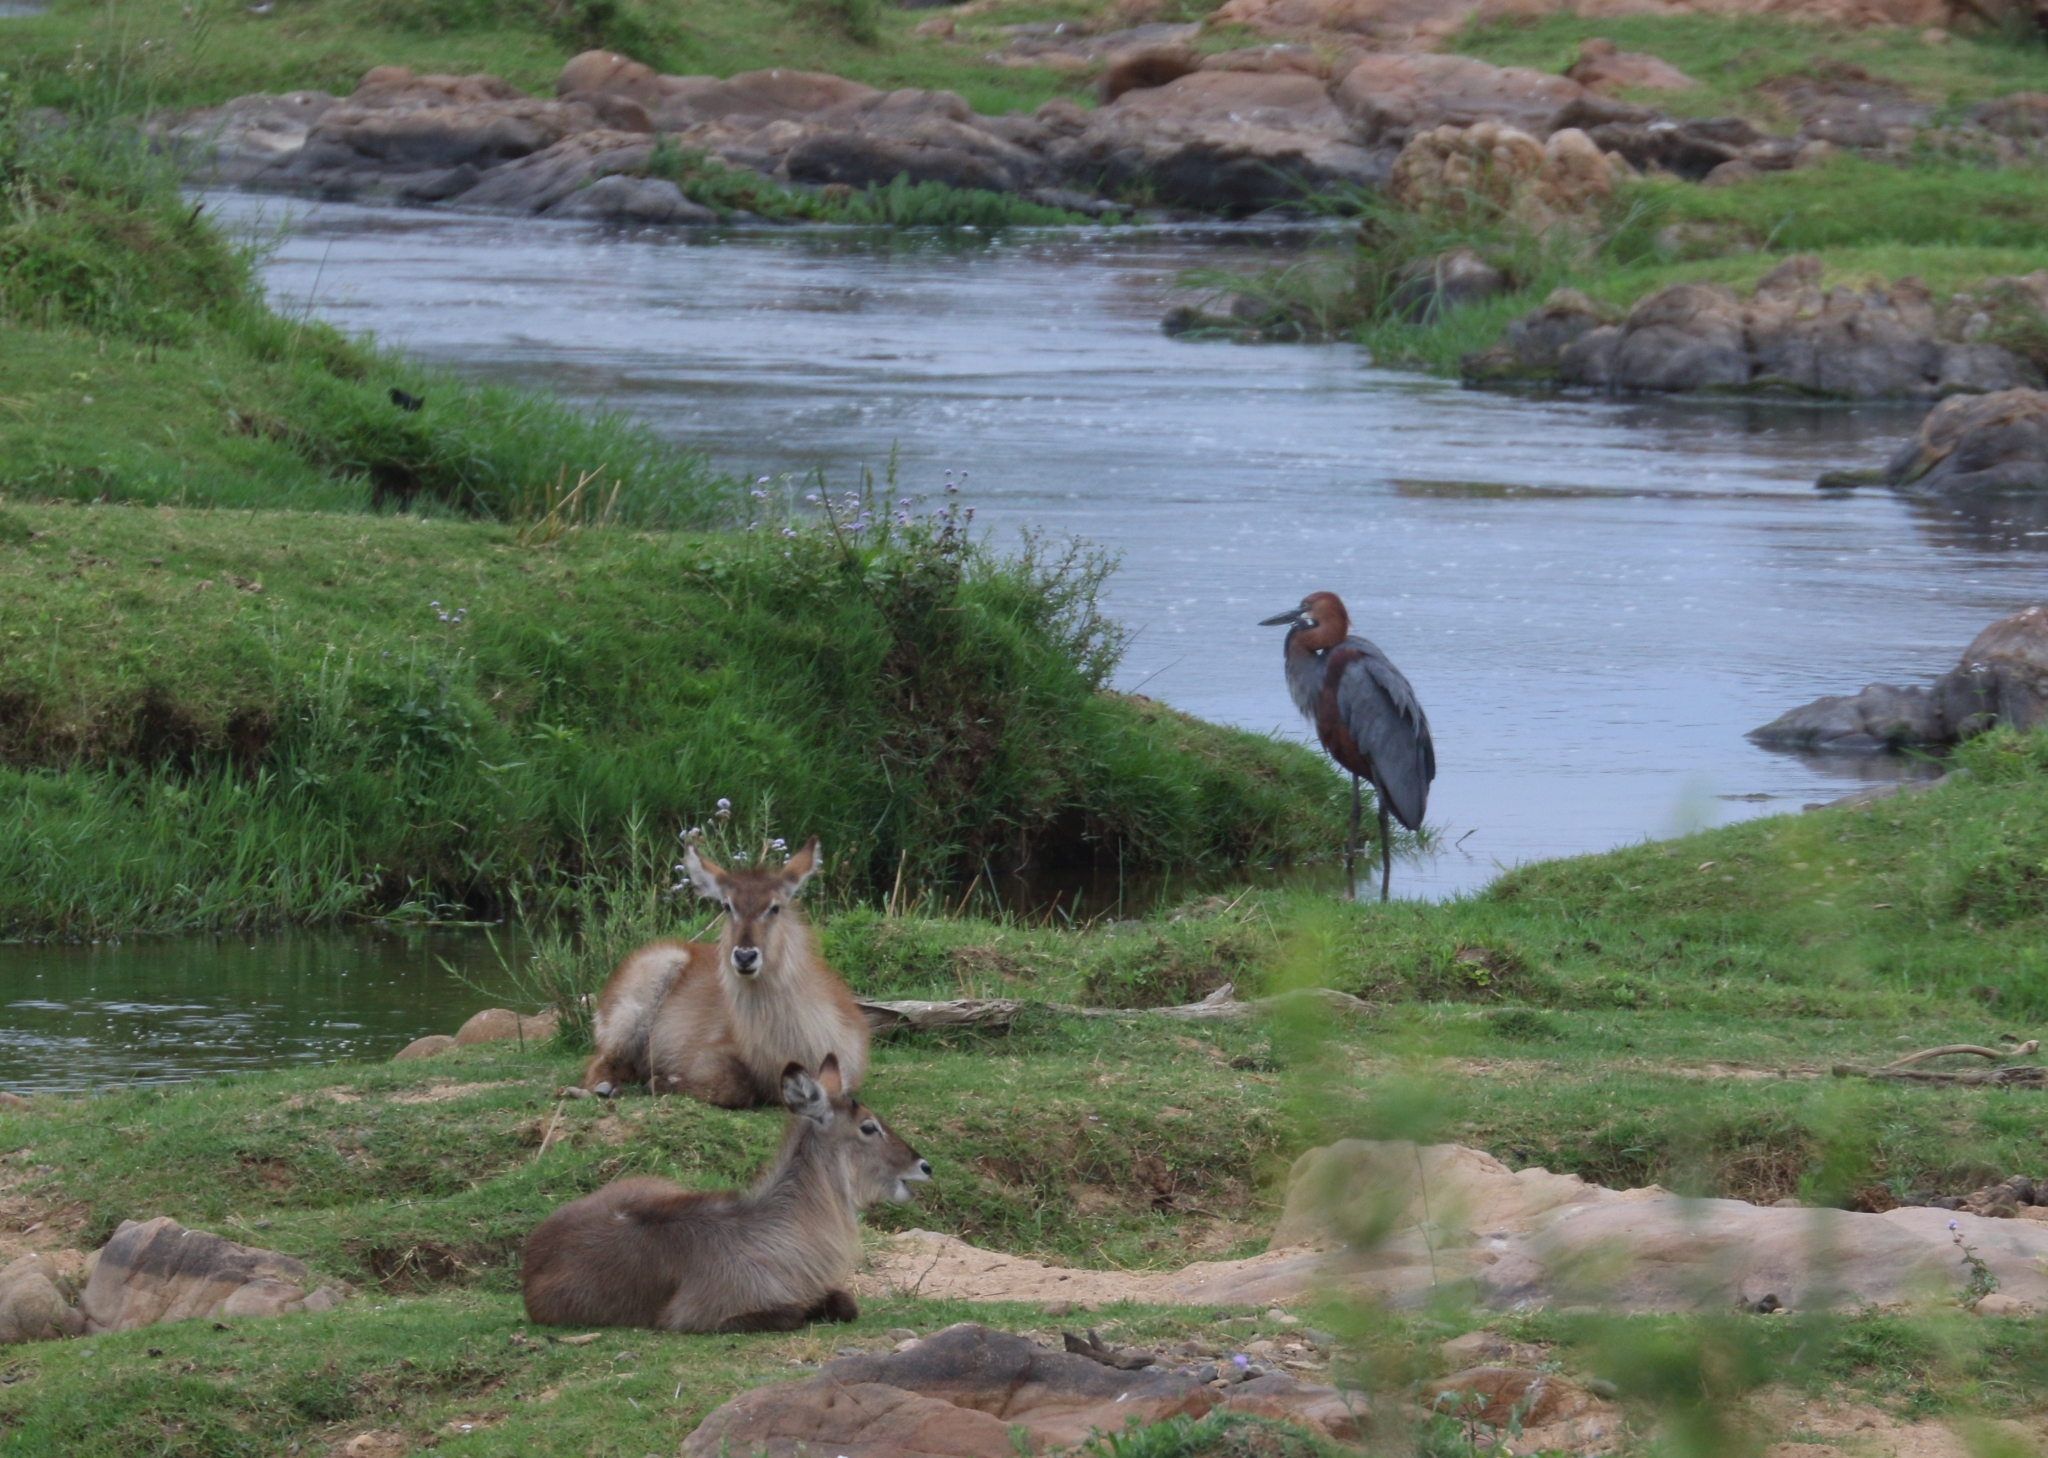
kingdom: Animalia
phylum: Chordata
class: Aves
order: Pelecaniformes
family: Ardeidae
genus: Ardea
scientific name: Ardea goliath
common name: Goliath heron
